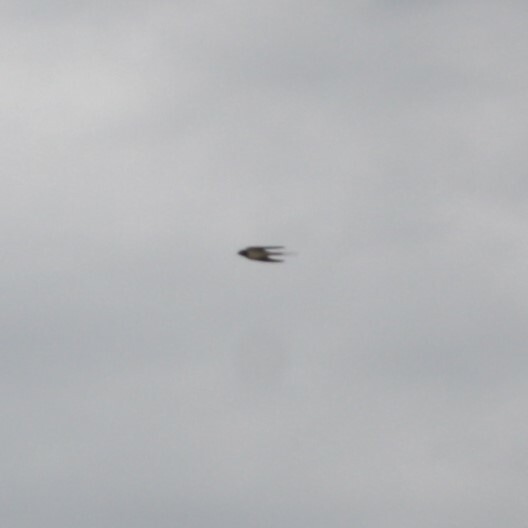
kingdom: Animalia
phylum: Chordata
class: Aves
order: Passeriformes
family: Hirundinidae
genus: Hirundo
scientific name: Hirundo rustica
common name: Barn swallow
